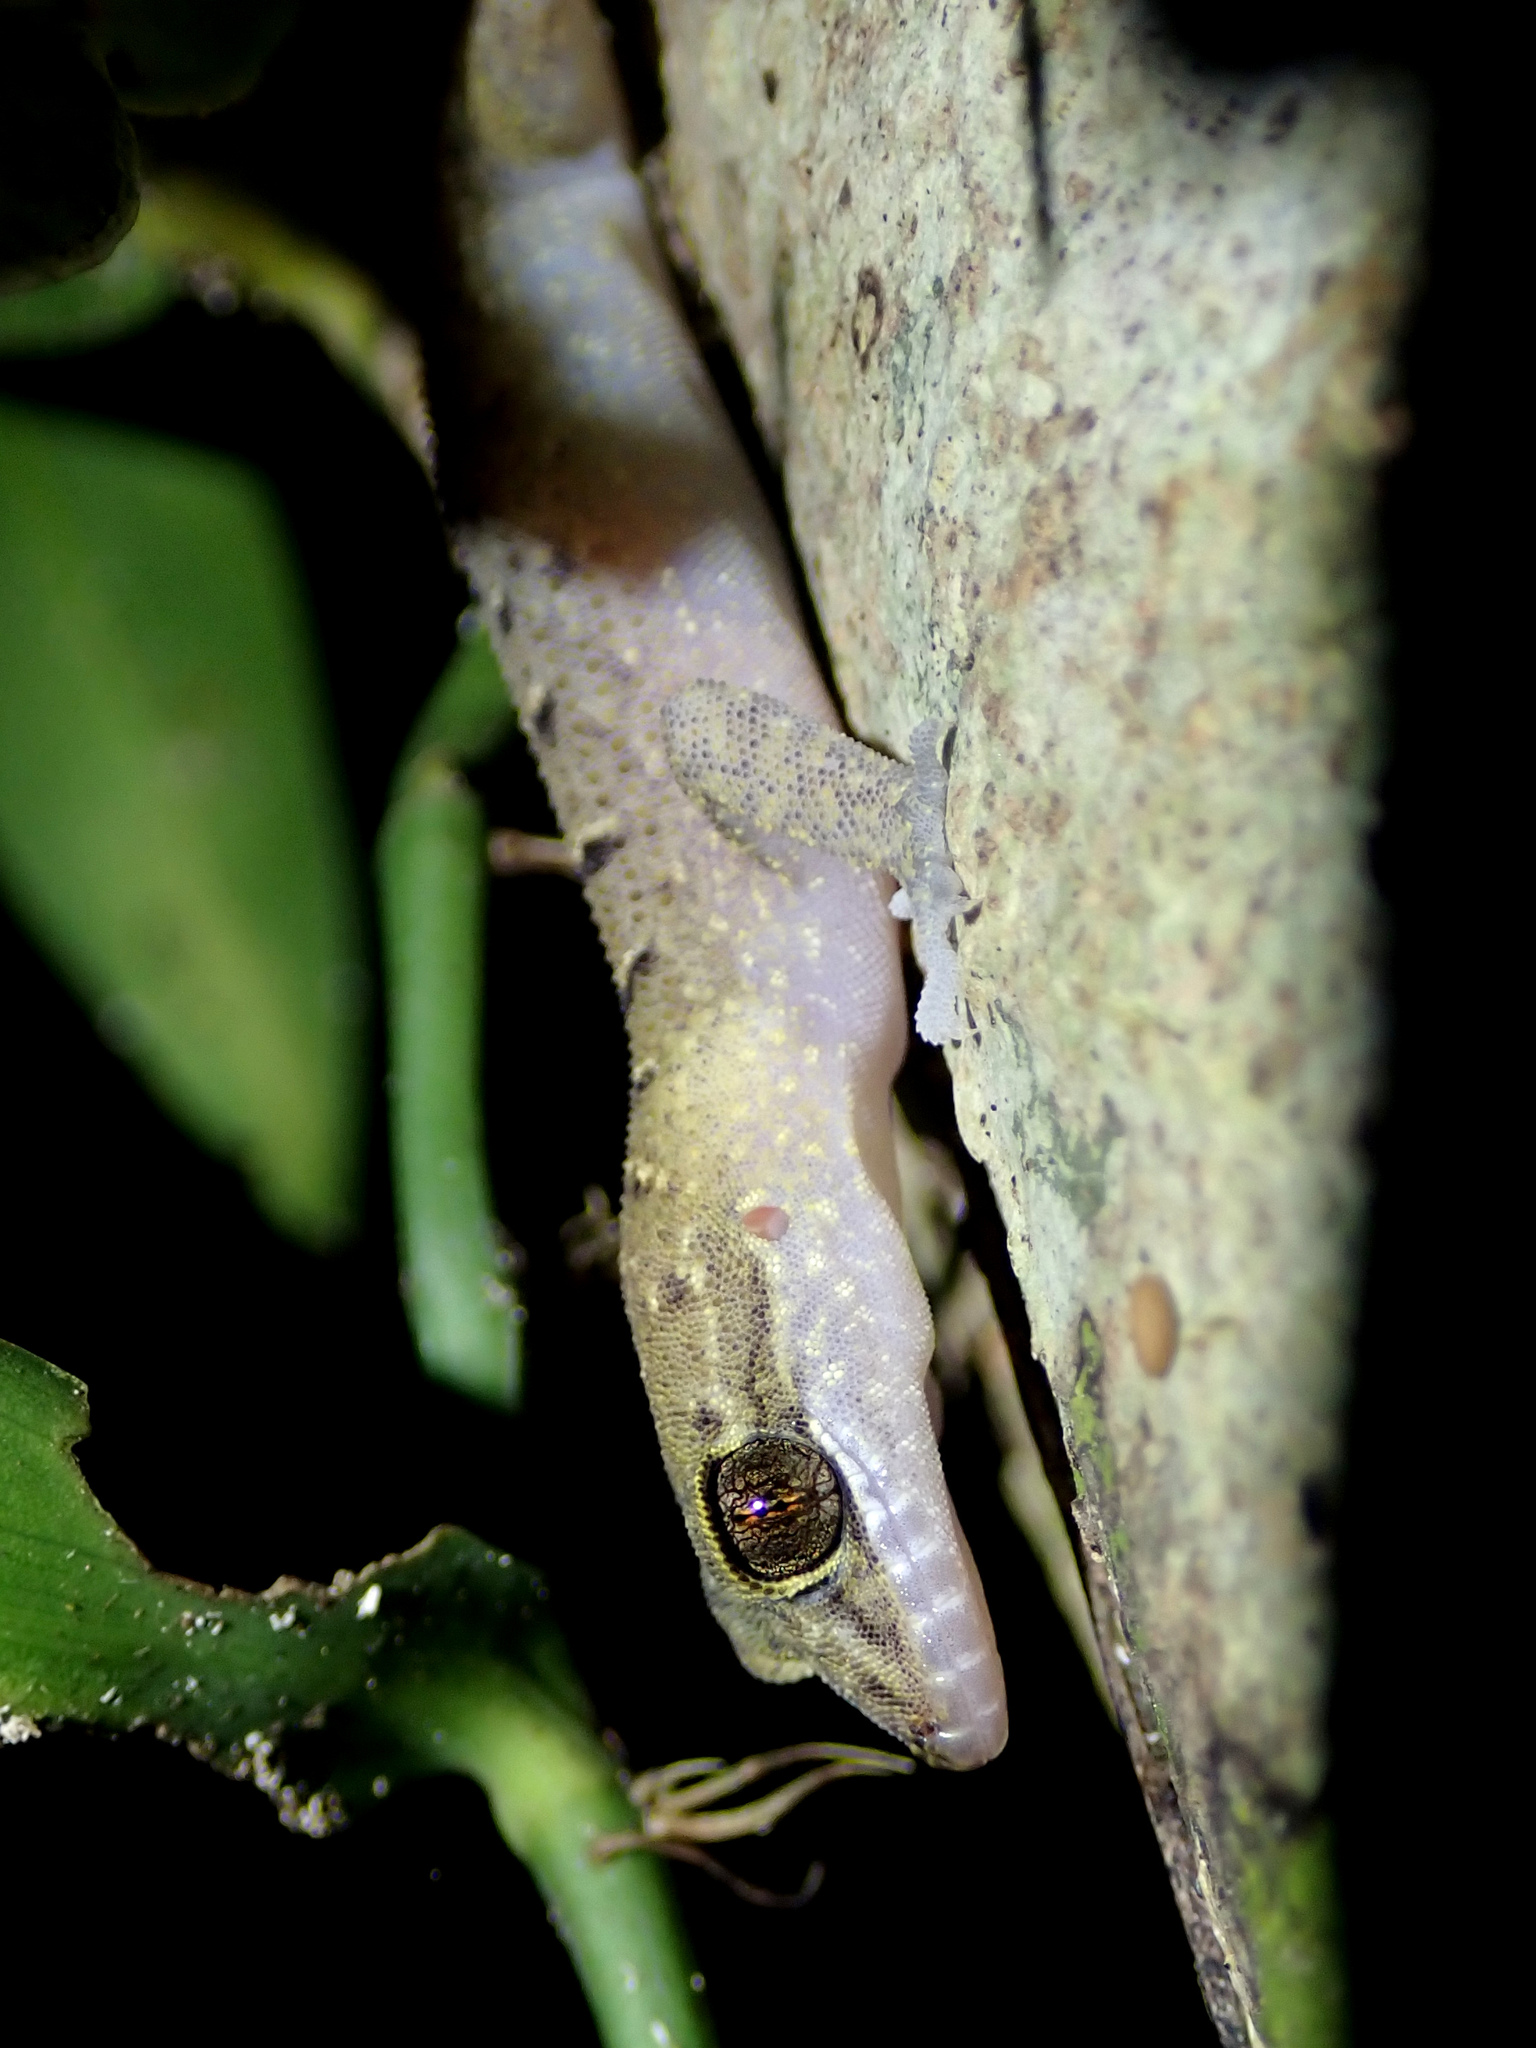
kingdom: Animalia
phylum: Chordata
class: Squamata
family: Gekkonidae
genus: Nactus
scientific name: Nactus cheverti
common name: Chevert's gecko
